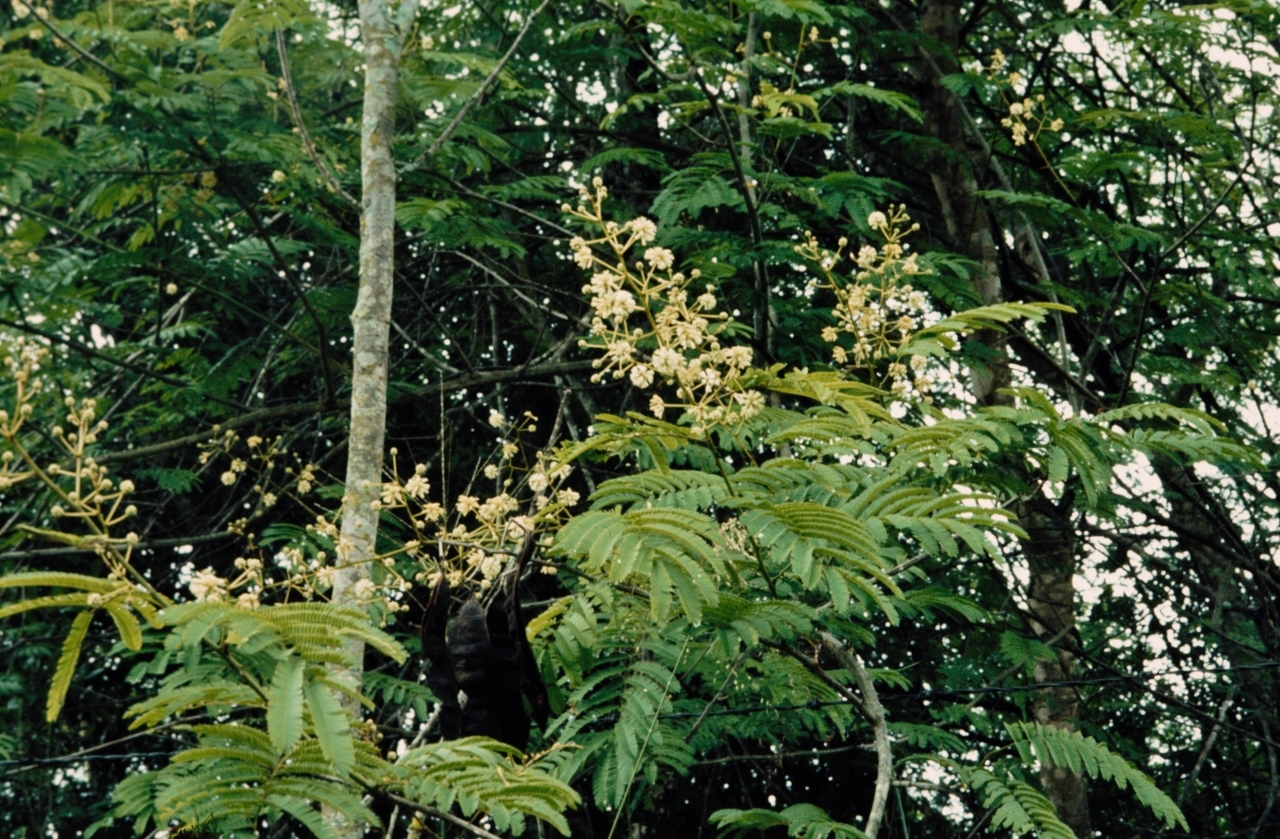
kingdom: Plantae
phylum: Tracheophyta
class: Magnoliopsida
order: Fabales
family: Fabaceae
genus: Senegalia
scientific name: Senegalia schweinfurthii
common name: River climbing acacia
